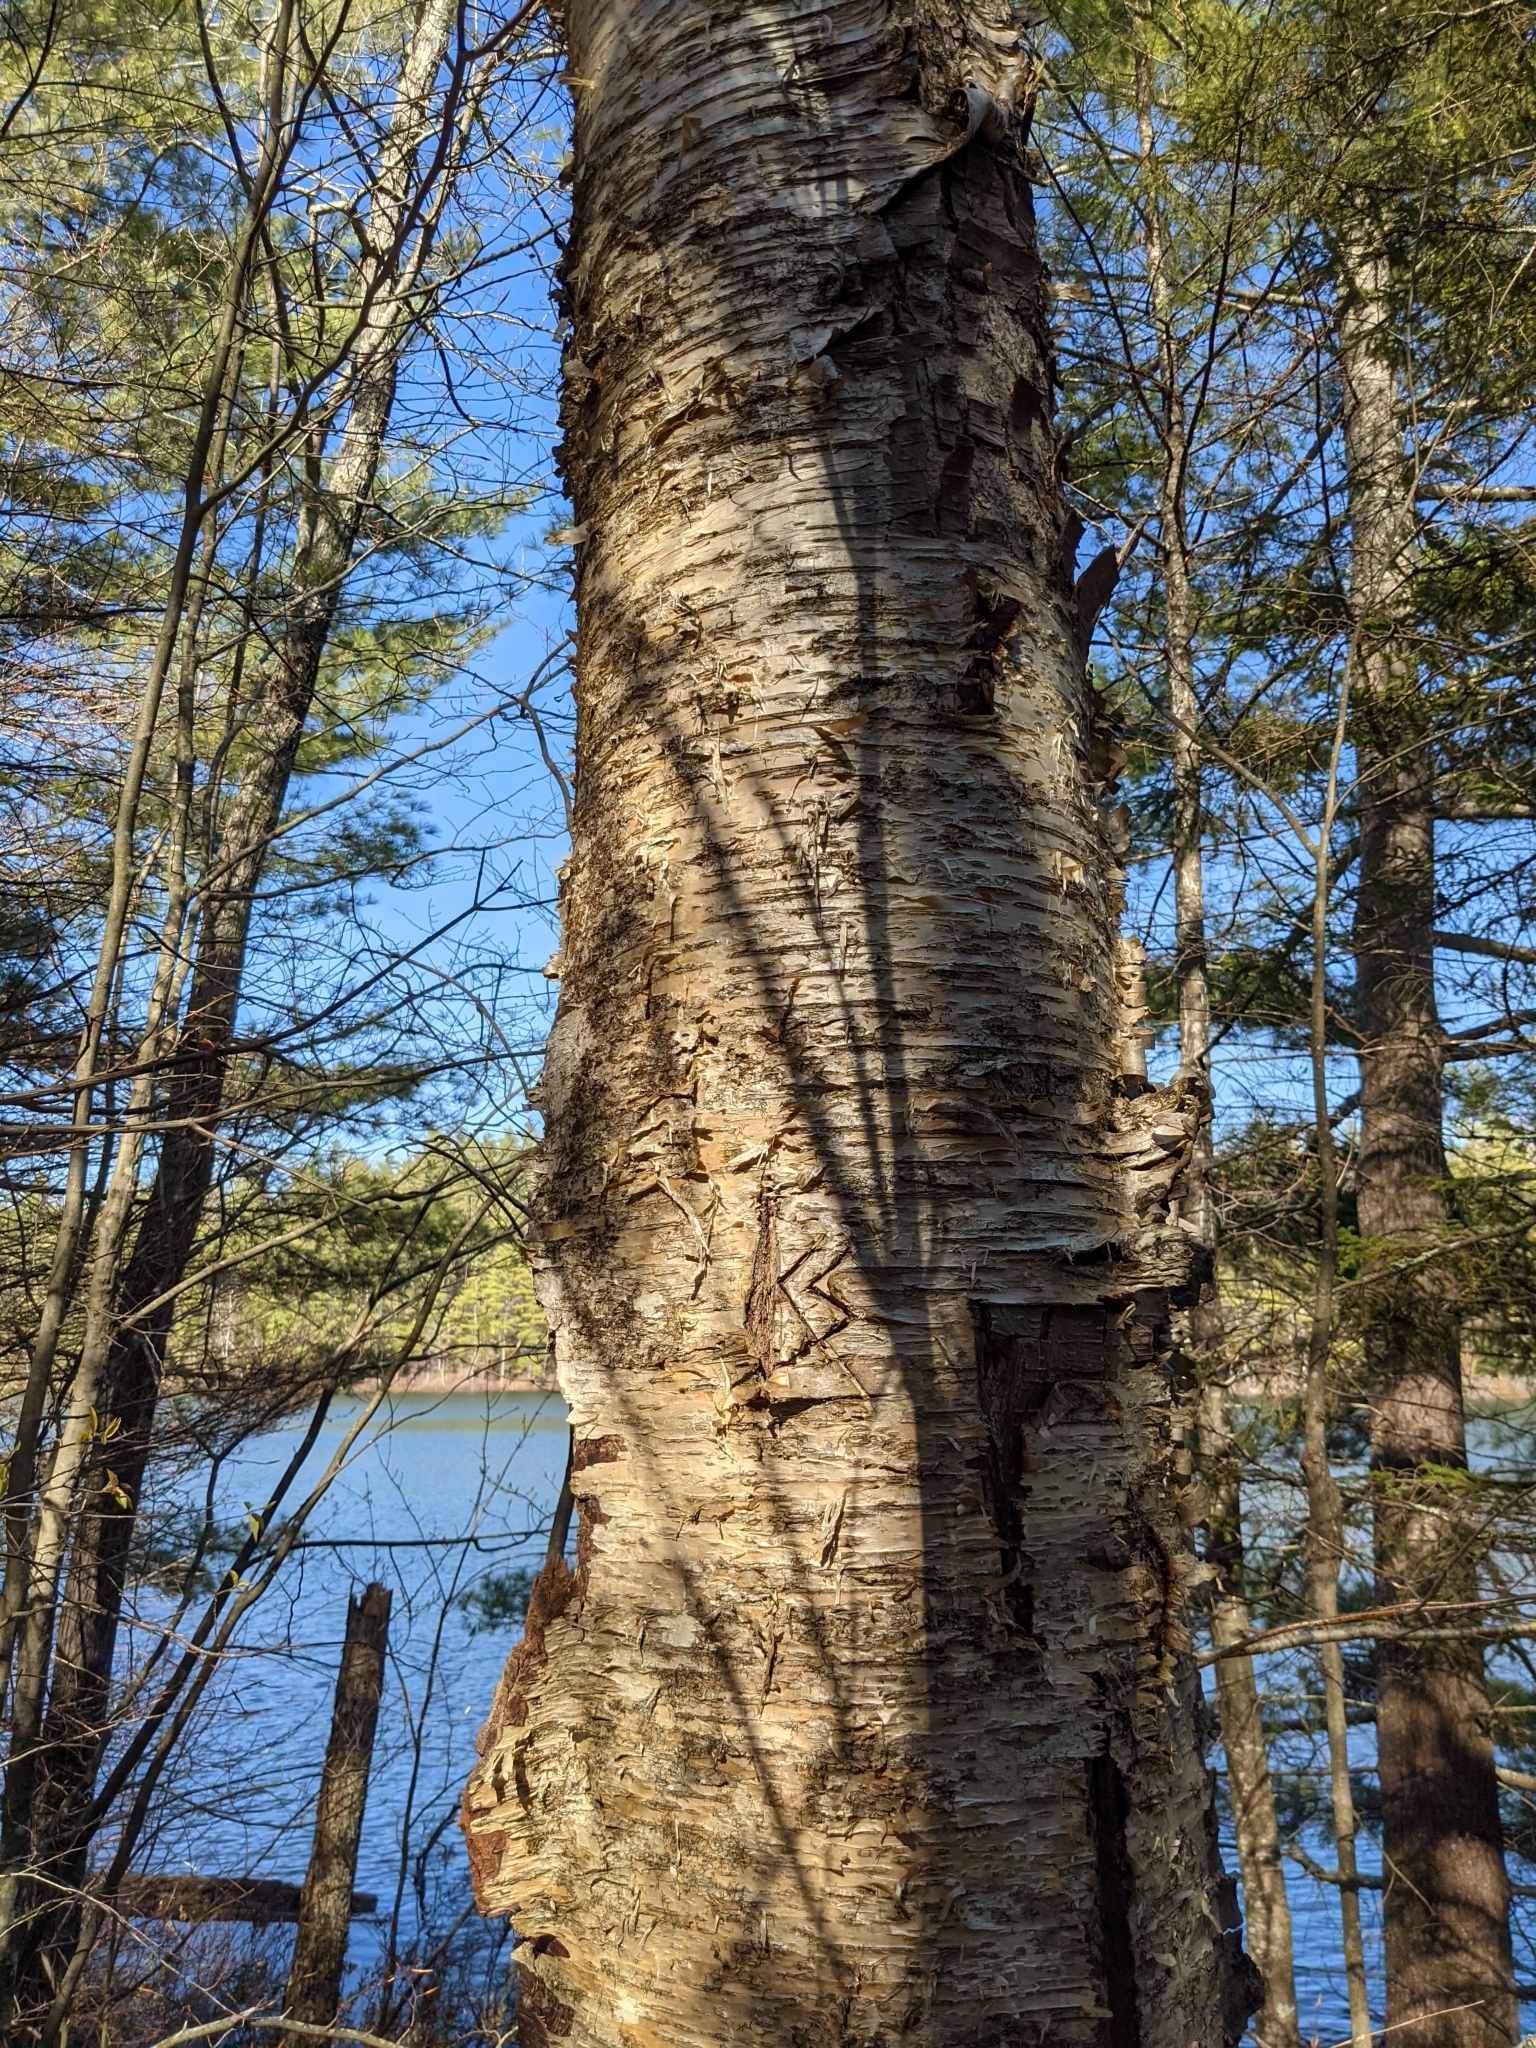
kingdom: Plantae
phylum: Tracheophyta
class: Magnoliopsida
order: Fagales
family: Betulaceae
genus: Betula
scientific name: Betula alleghaniensis
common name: Yellow birch
